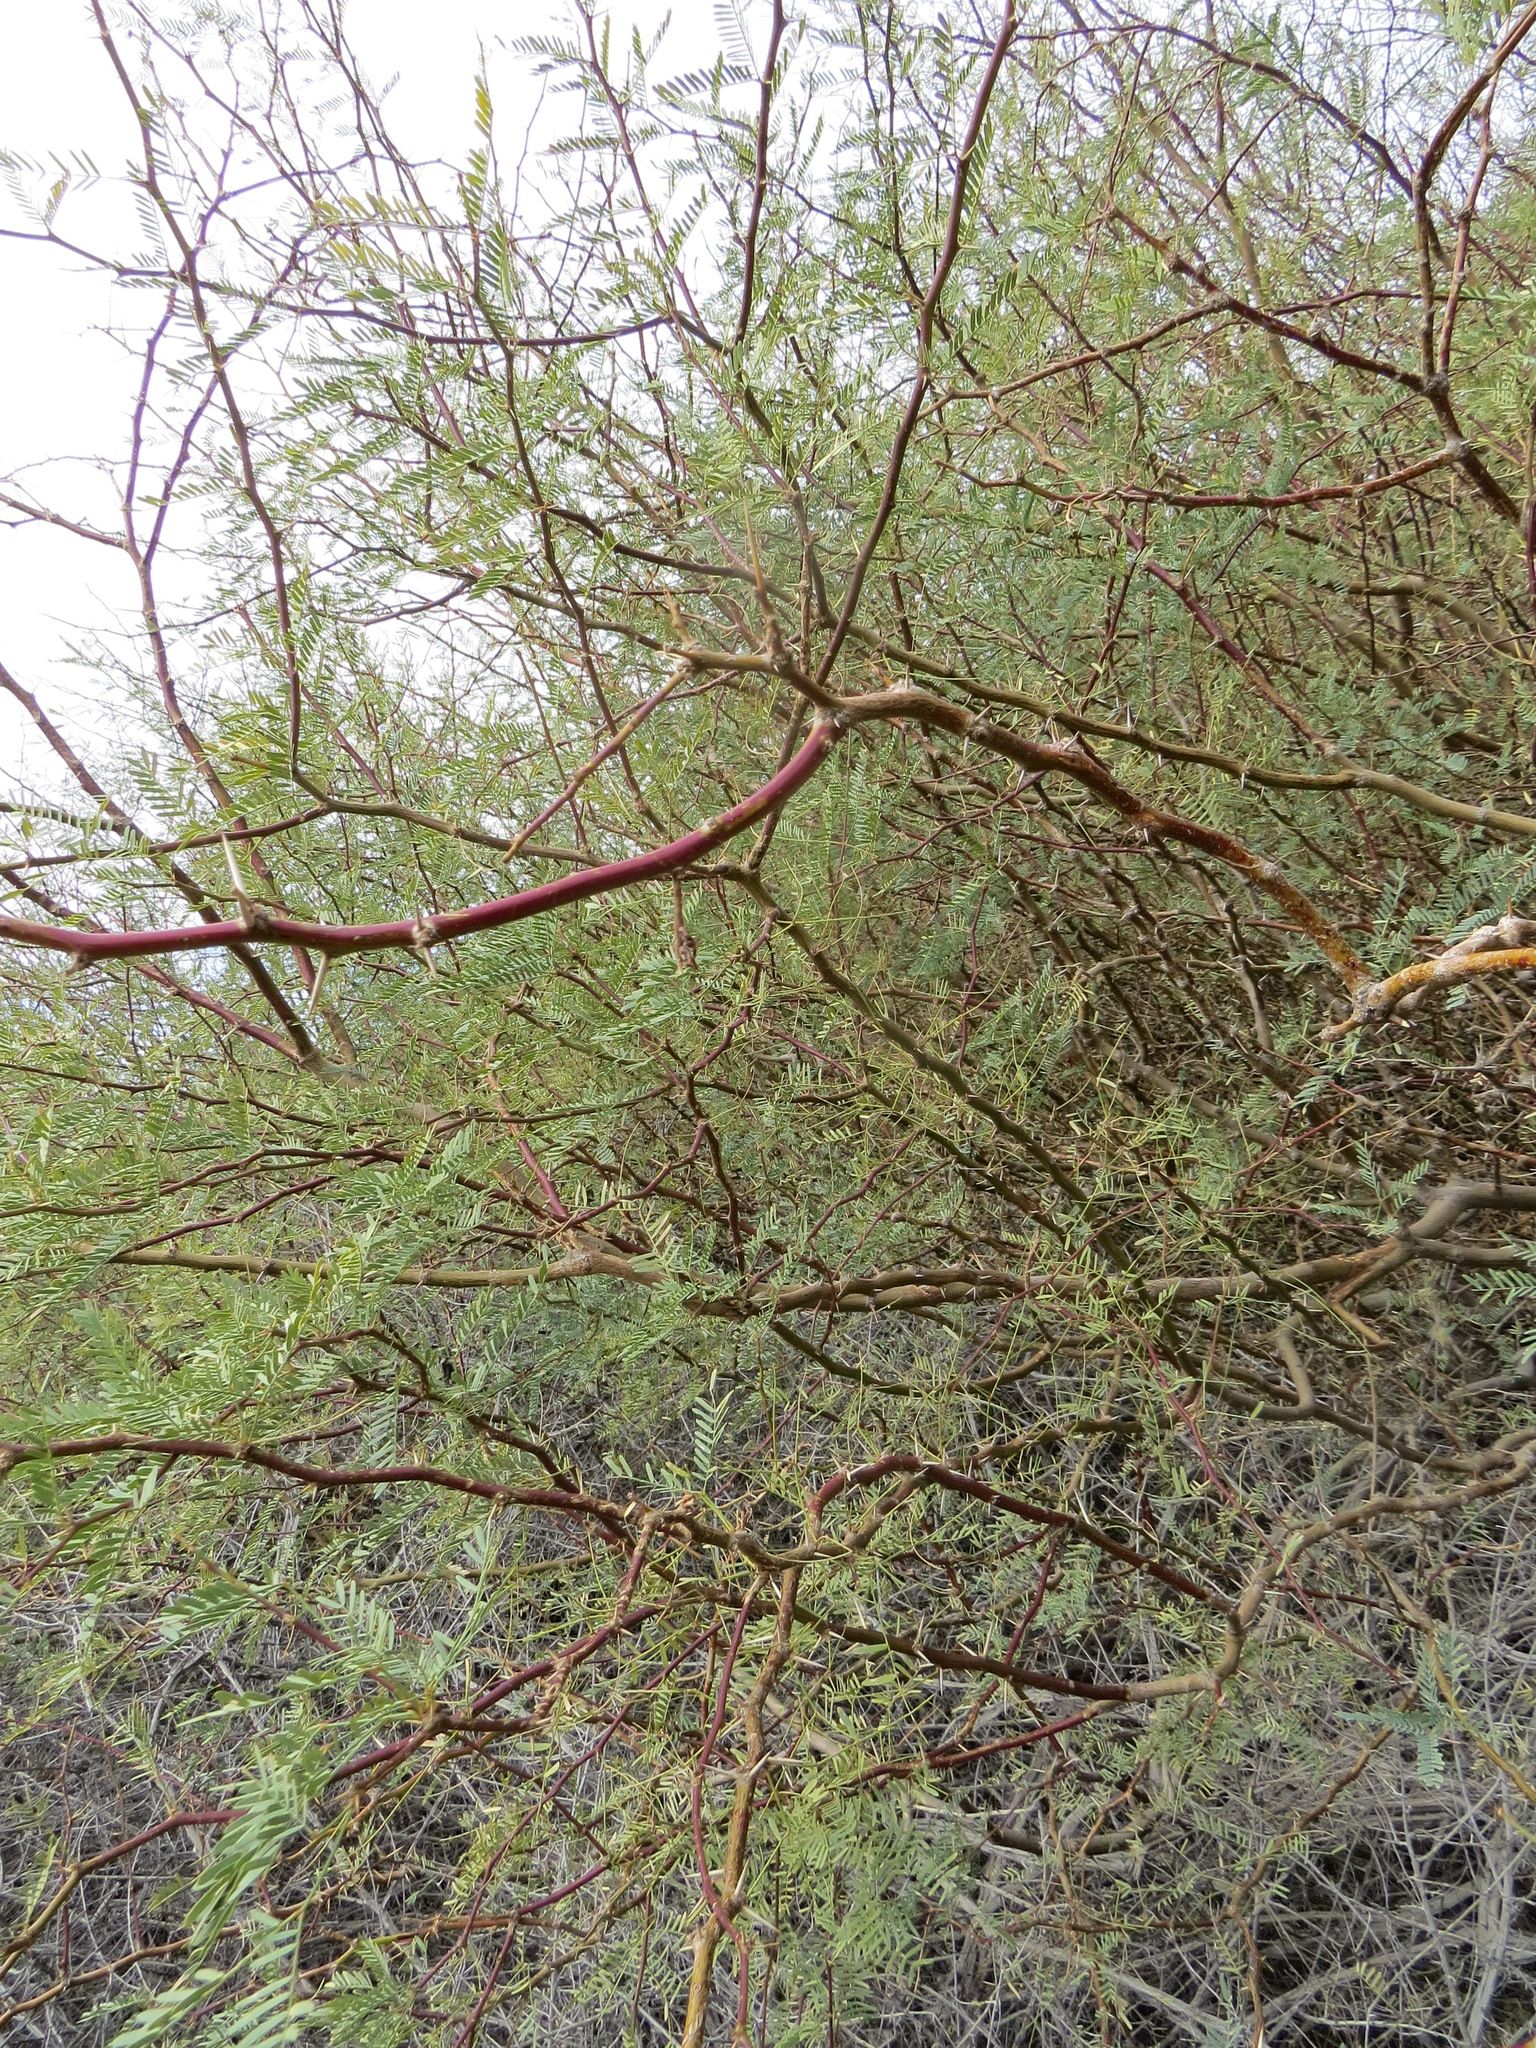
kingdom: Plantae
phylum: Tracheophyta
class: Magnoliopsida
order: Fabales
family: Fabaceae
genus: Prosopis
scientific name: Prosopis pubescens
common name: Screw-bean
